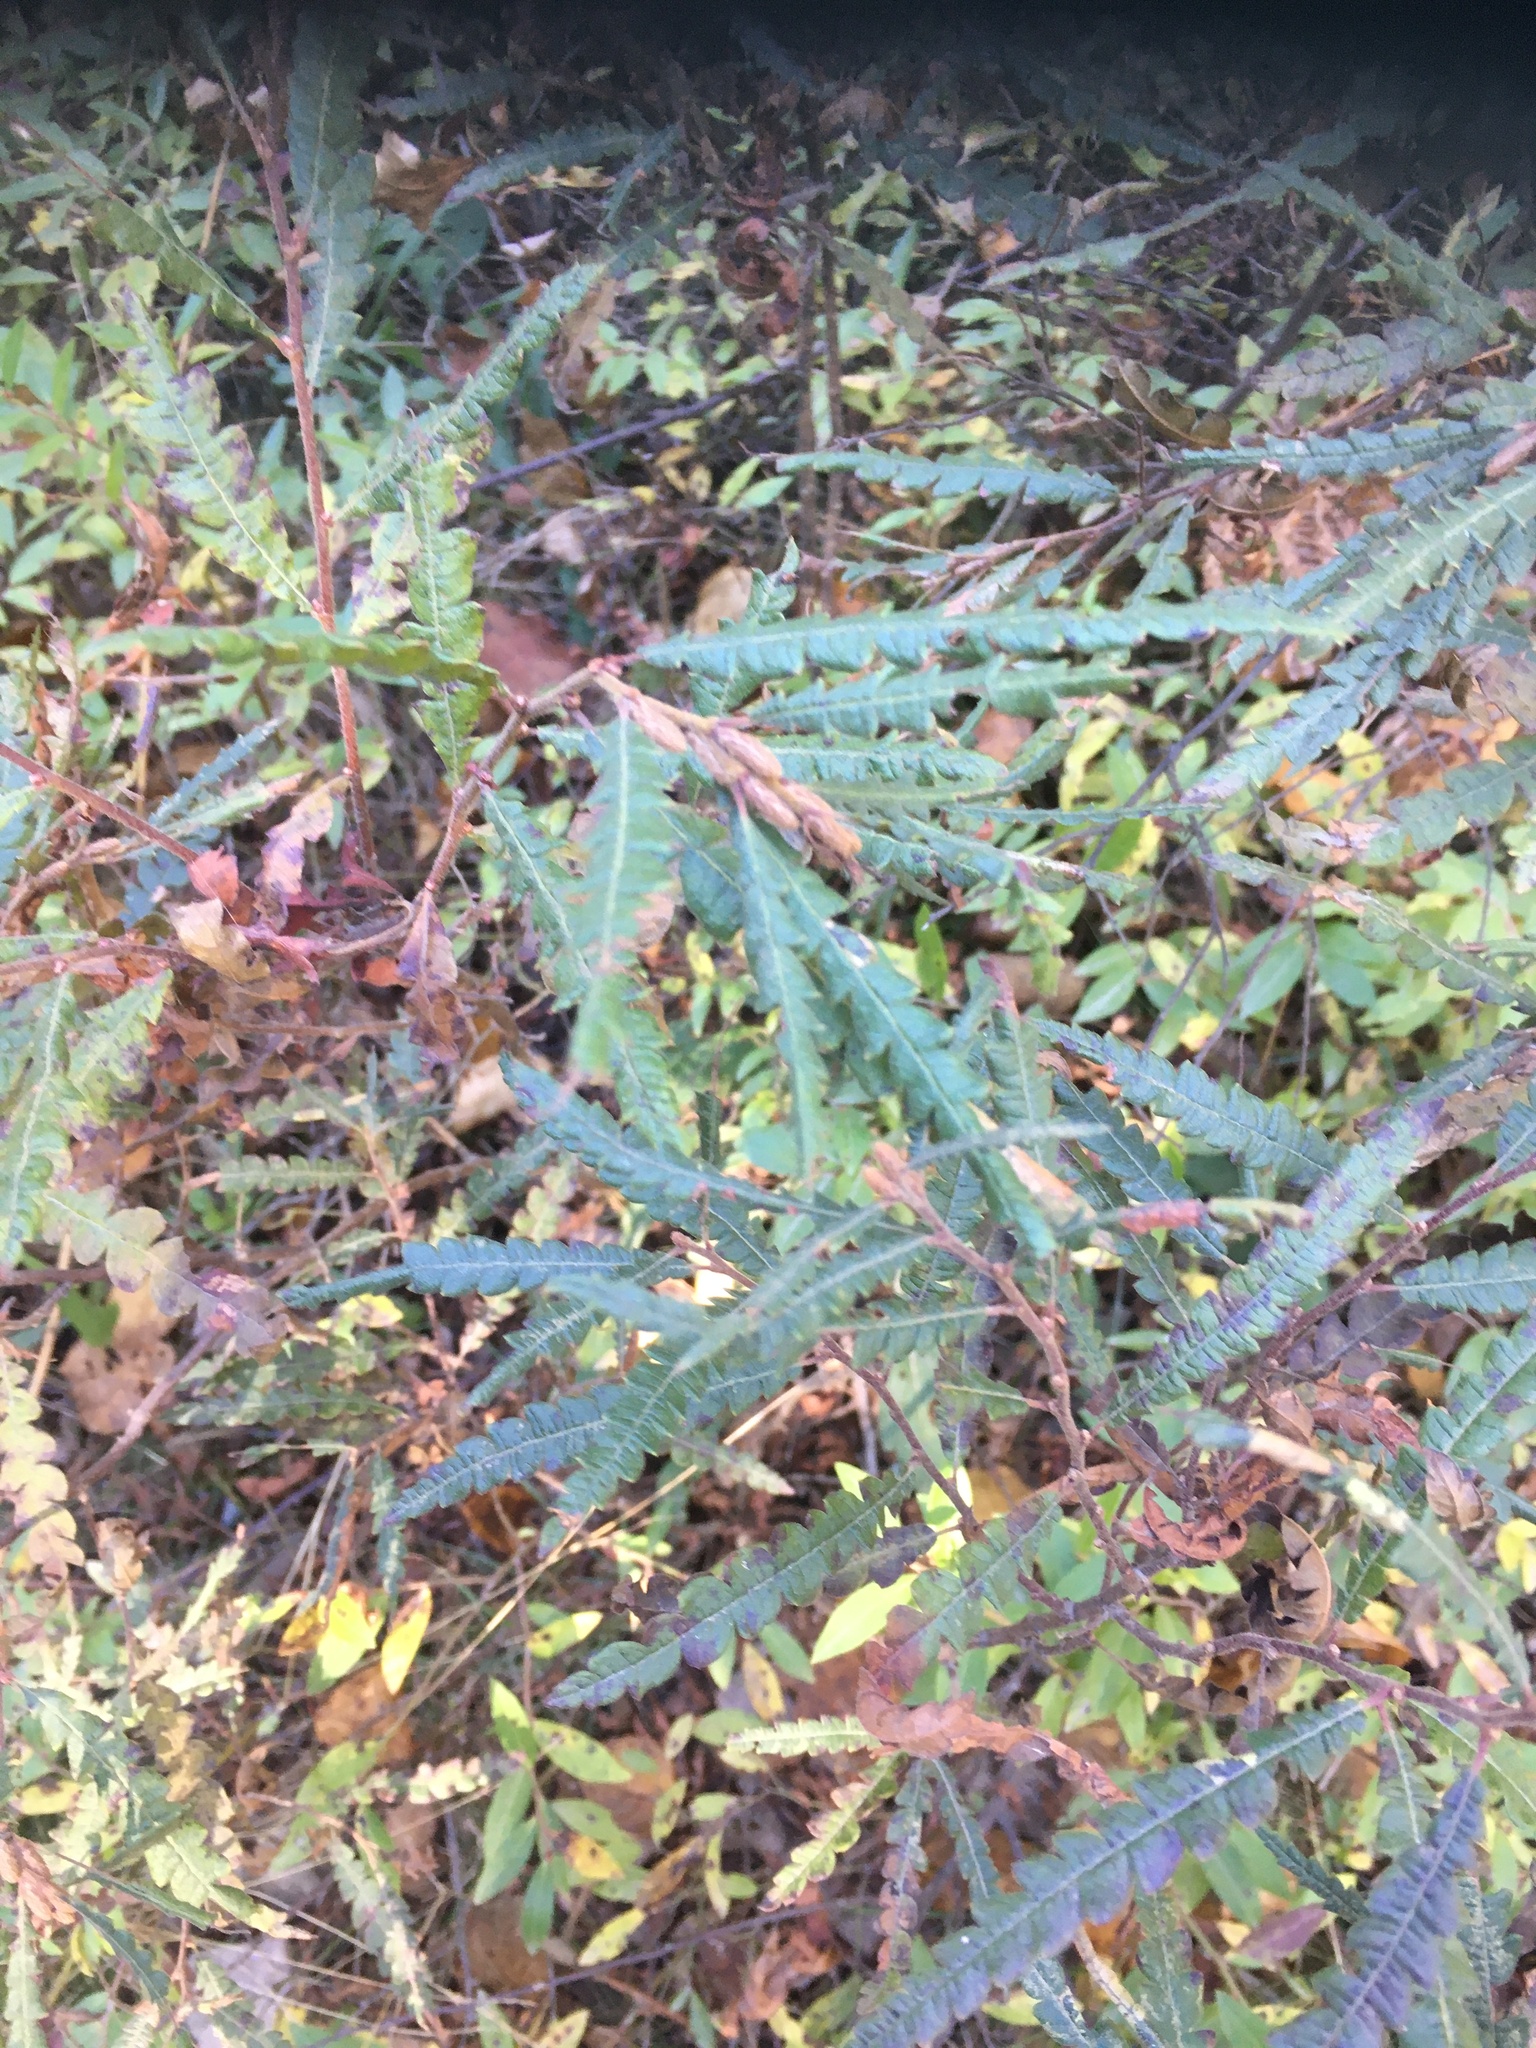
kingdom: Plantae
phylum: Tracheophyta
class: Magnoliopsida
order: Fagales
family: Myricaceae
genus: Comptonia
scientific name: Comptonia peregrina
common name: Sweet-fern
